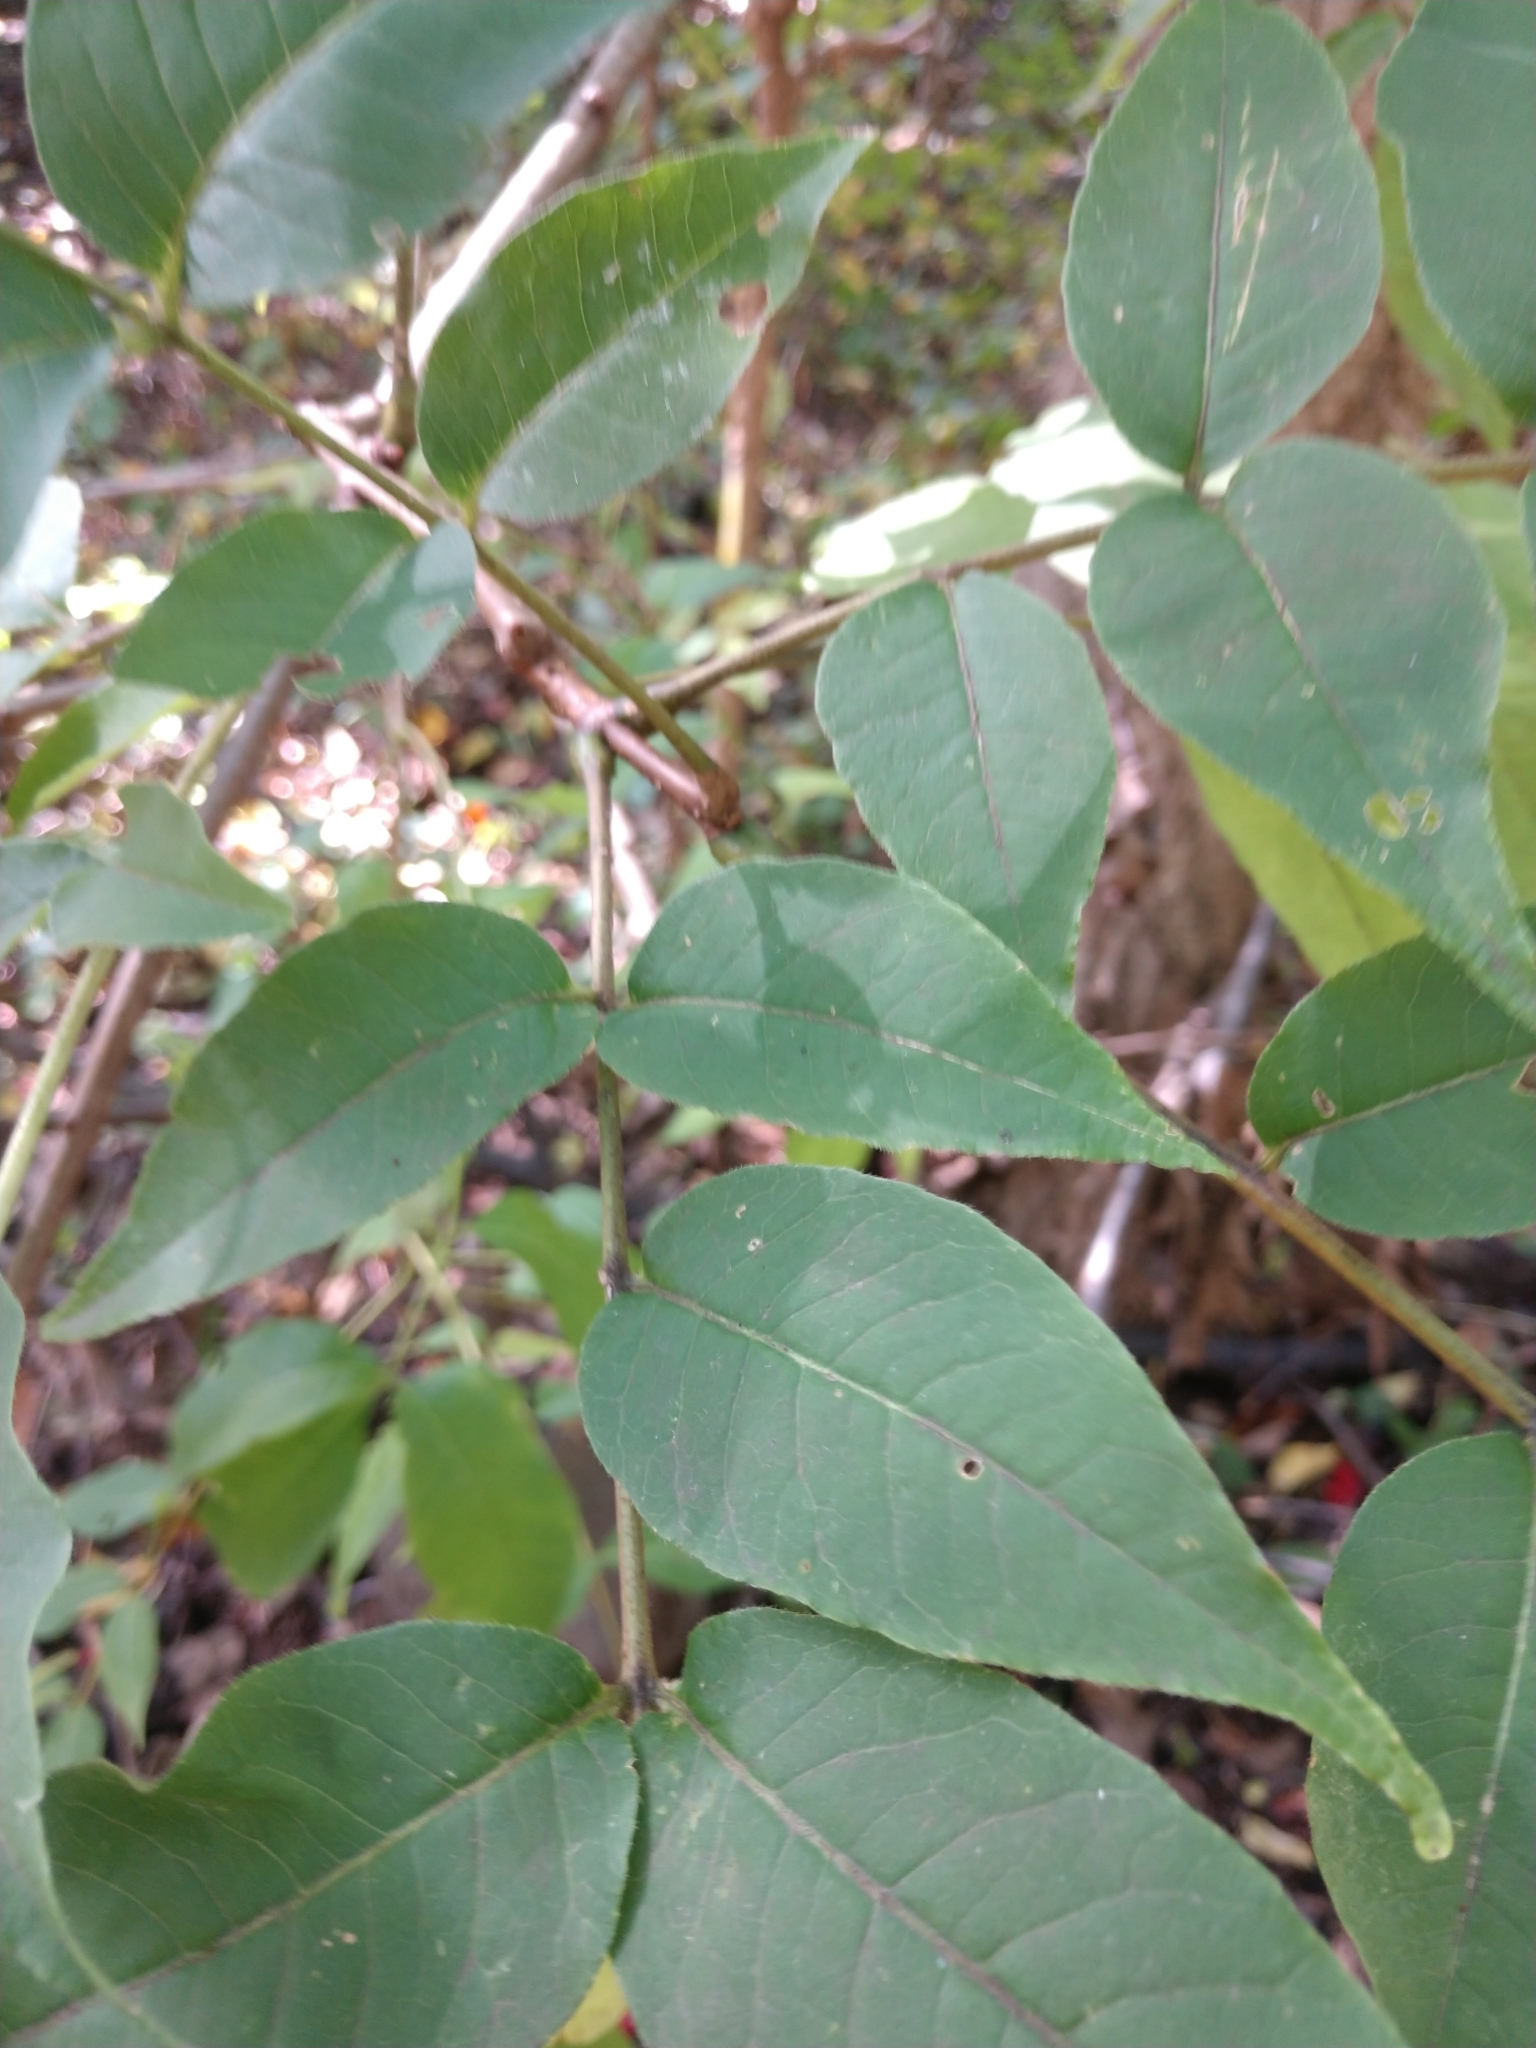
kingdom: Plantae
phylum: Tracheophyta
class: Magnoliopsida
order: Sapindales
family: Rutaceae
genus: Phellodendron
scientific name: Phellodendron amurense
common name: Amur corktree
